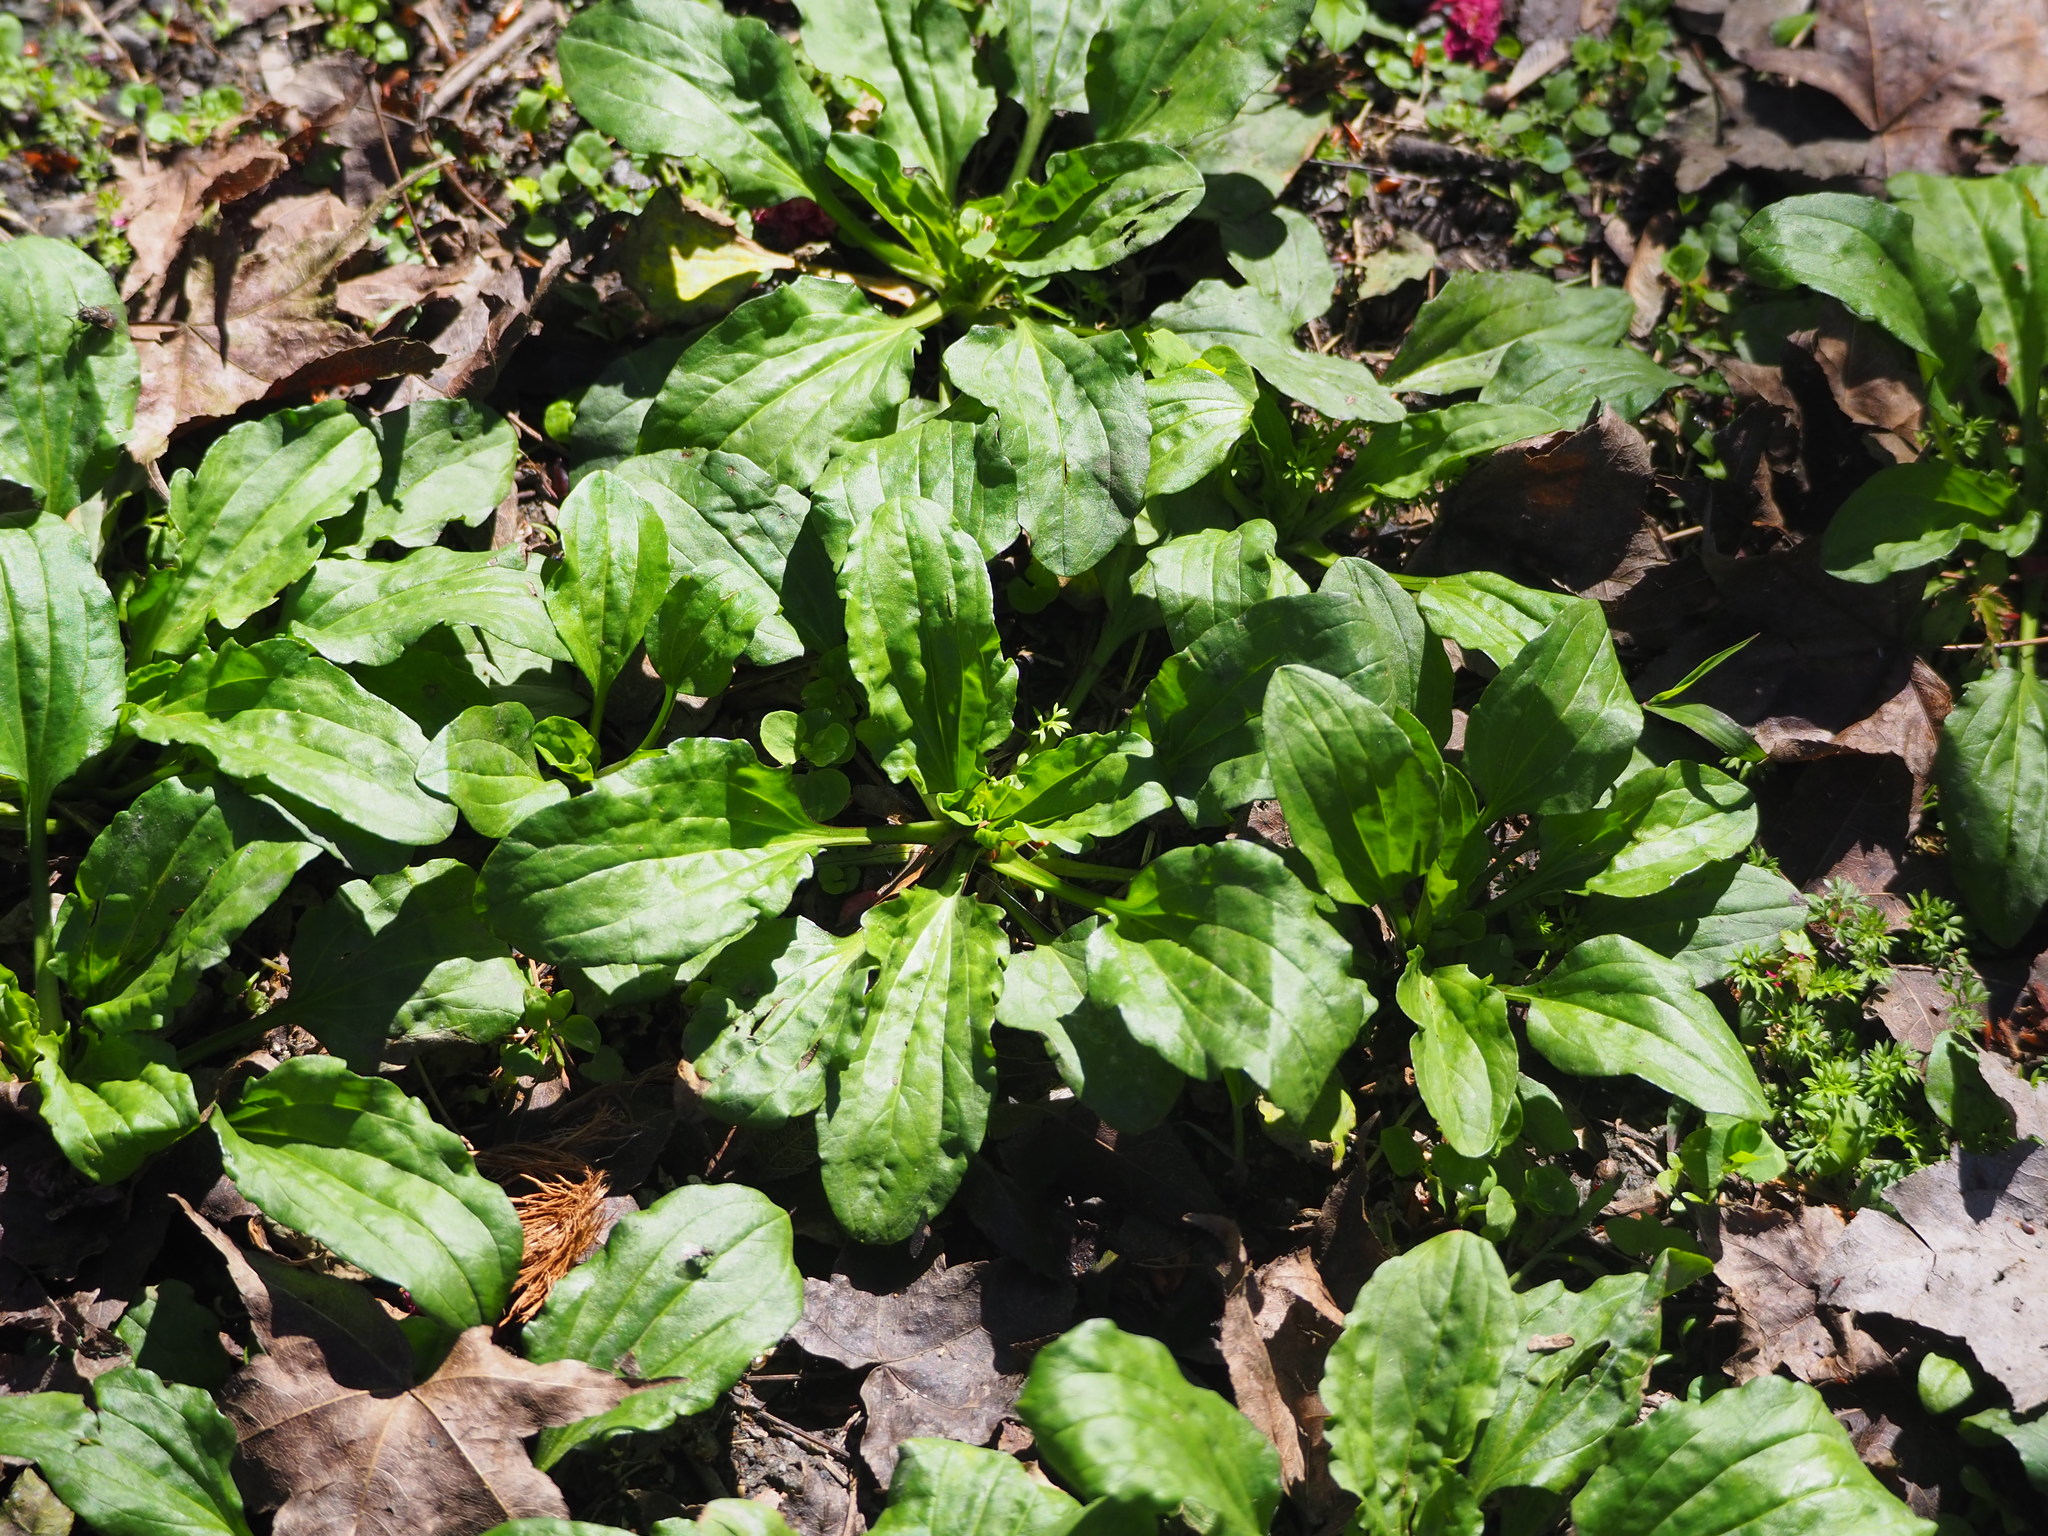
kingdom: Plantae
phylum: Tracheophyta
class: Magnoliopsida
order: Lamiales
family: Plantaginaceae
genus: Plantago
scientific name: Plantago asiatica
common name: Psyllium
